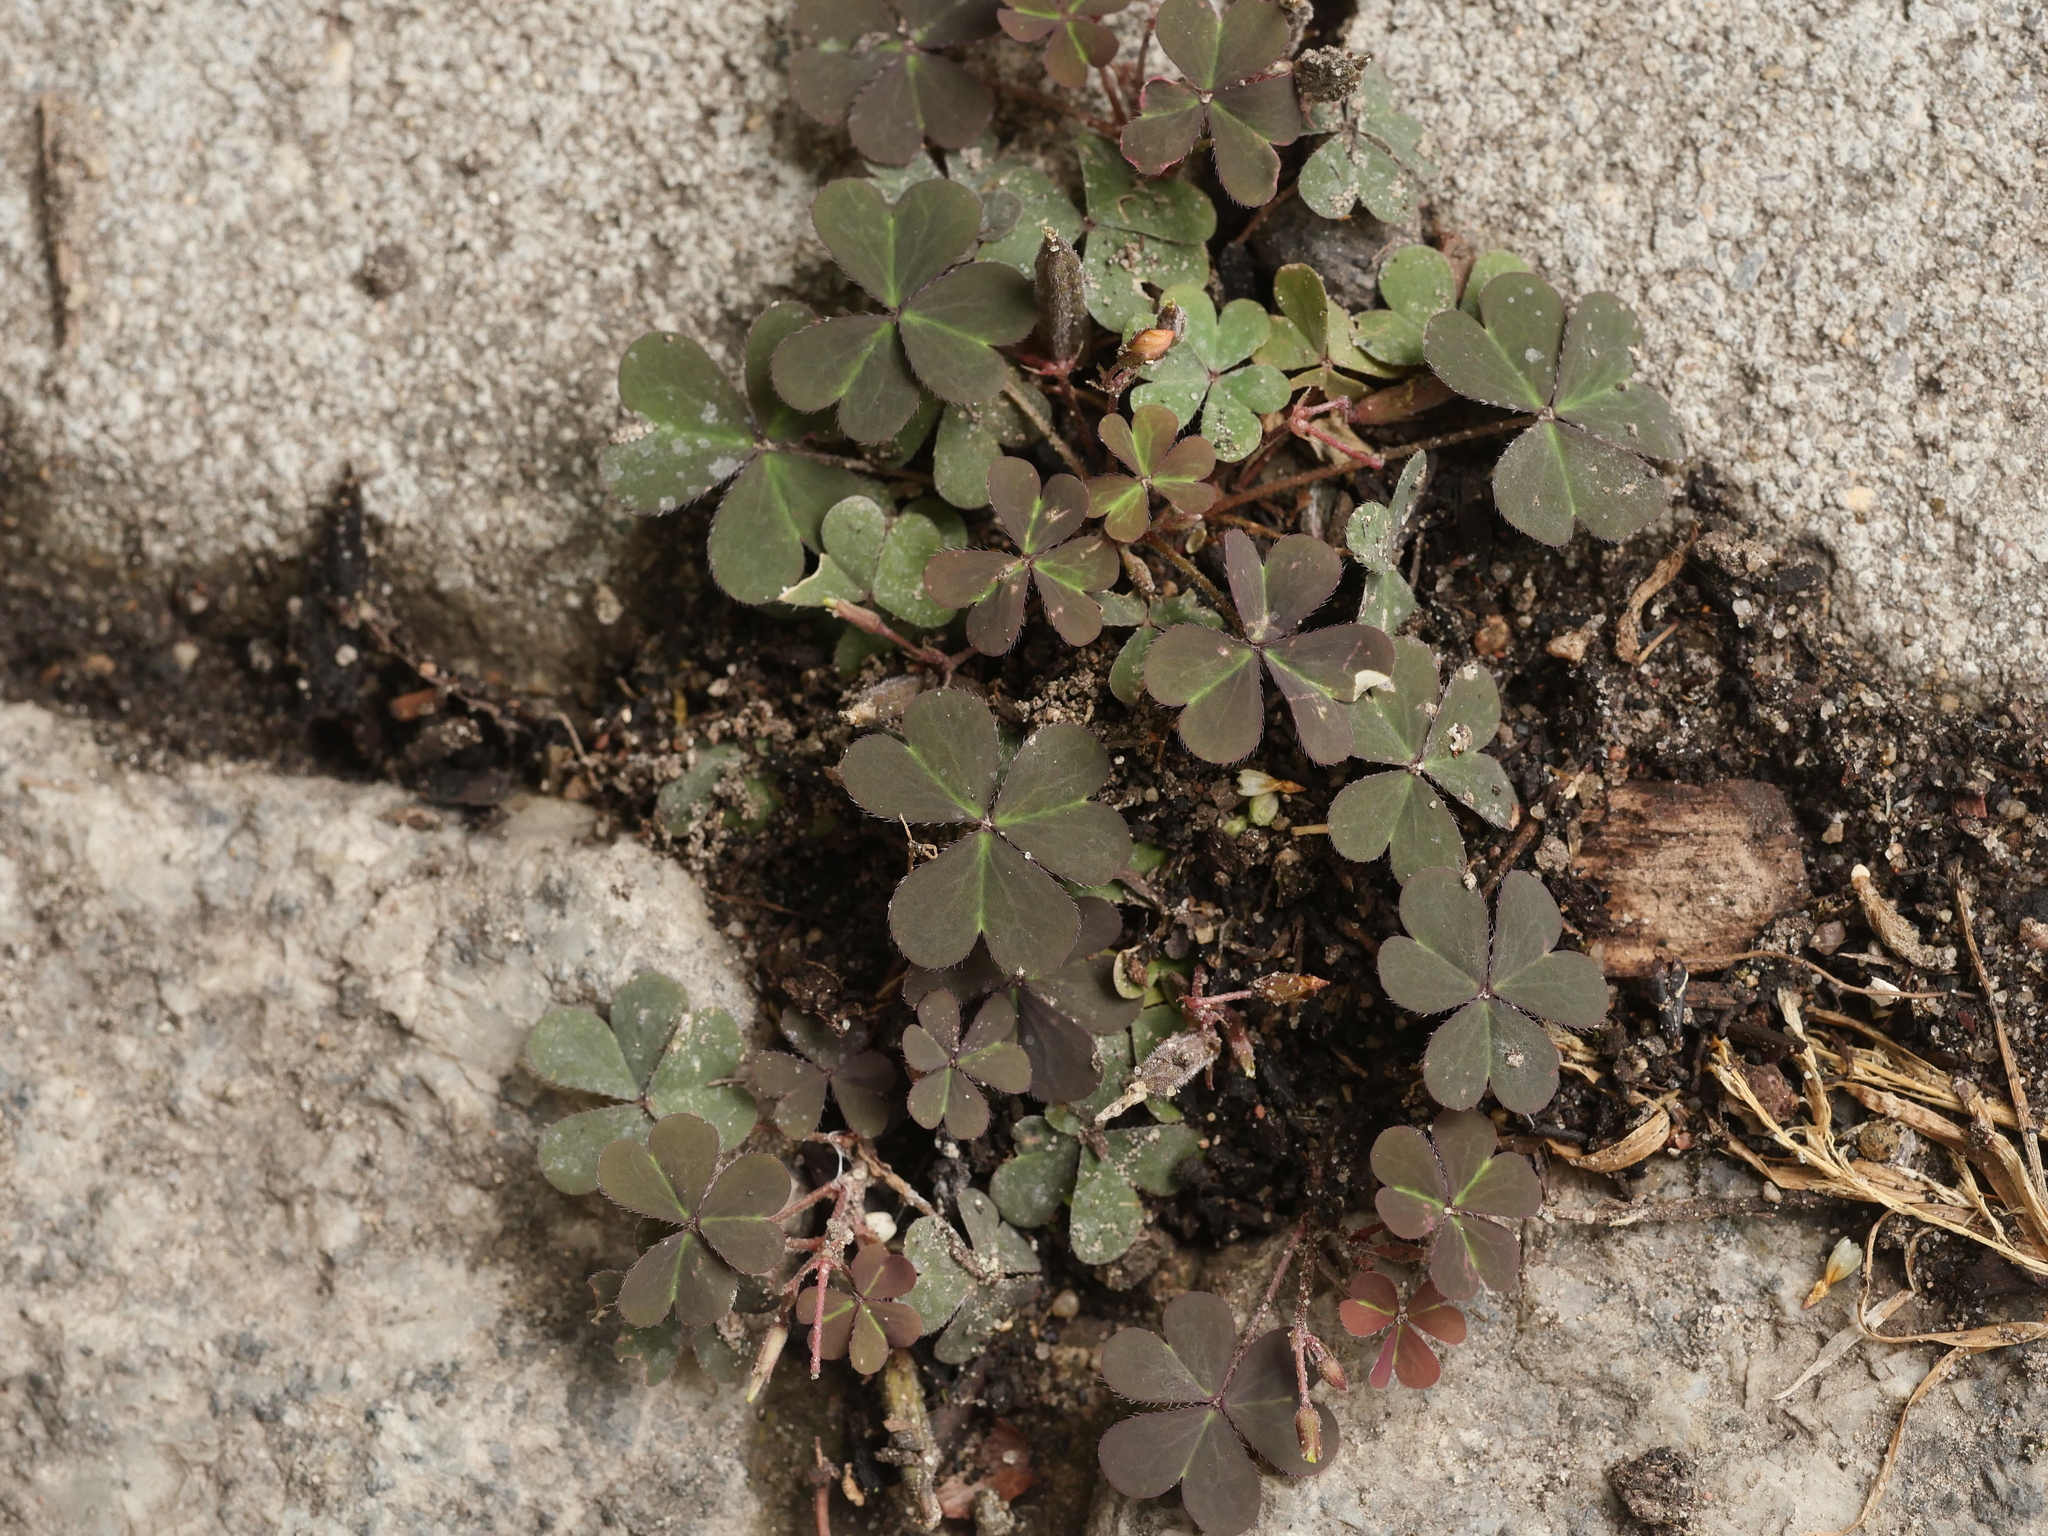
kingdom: Plantae
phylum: Tracheophyta
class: Magnoliopsida
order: Oxalidales
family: Oxalidaceae
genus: Oxalis
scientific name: Oxalis corniculata
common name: Procumbent yellow-sorrel
